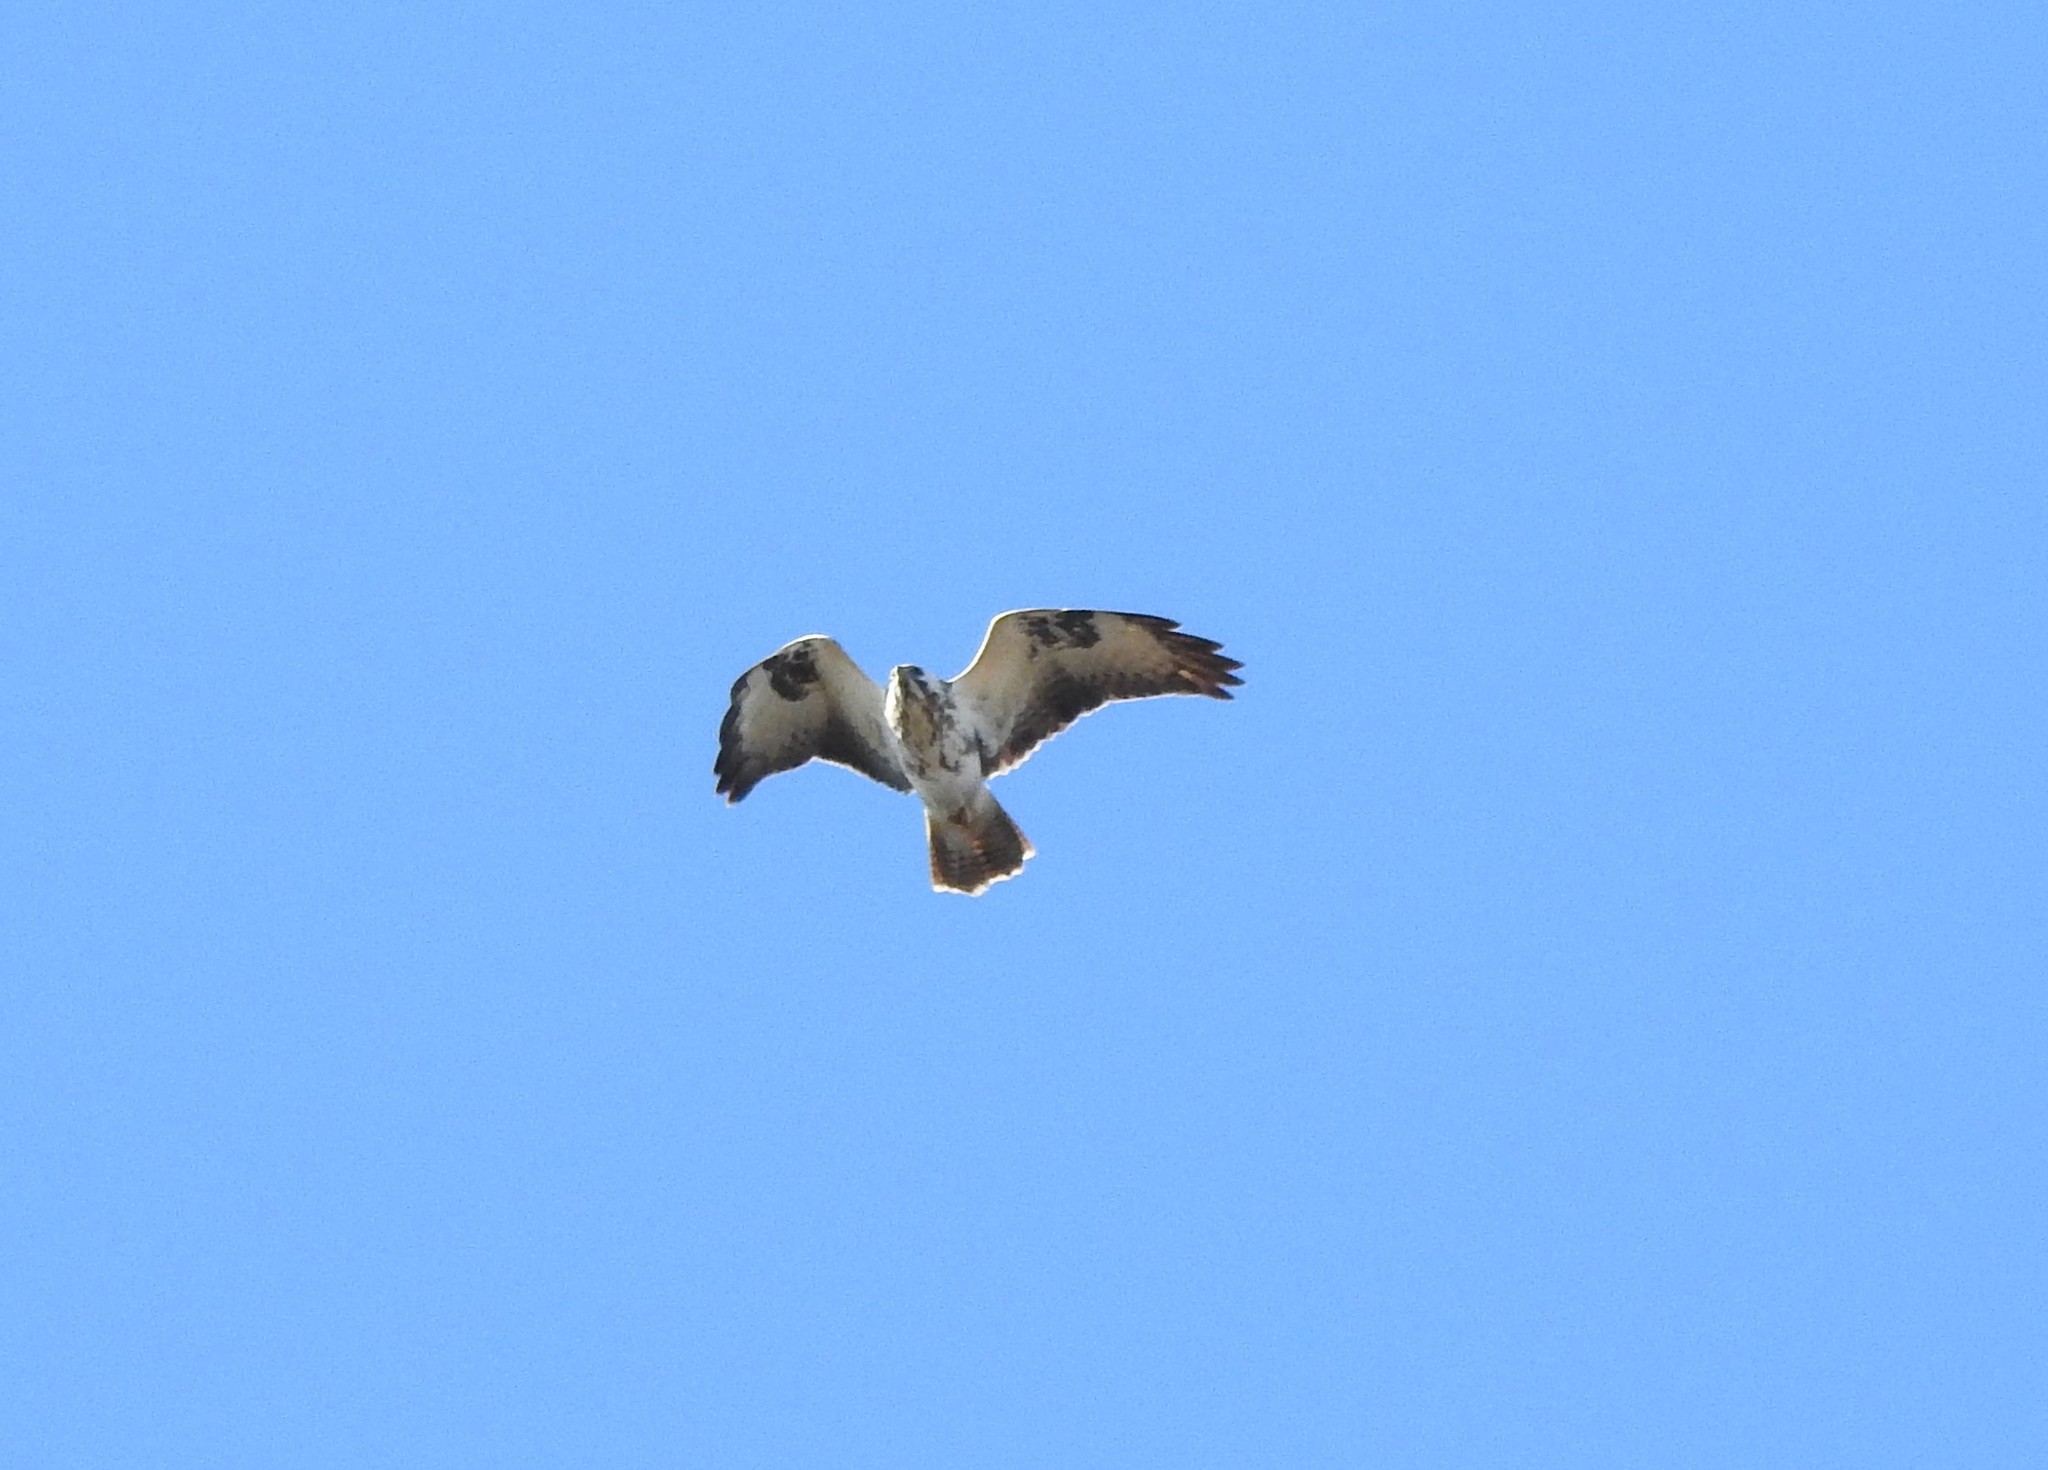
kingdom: Animalia
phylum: Chordata
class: Aves
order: Accipitriformes
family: Accipitridae
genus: Buteo
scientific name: Buteo buteo
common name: Common buzzard
